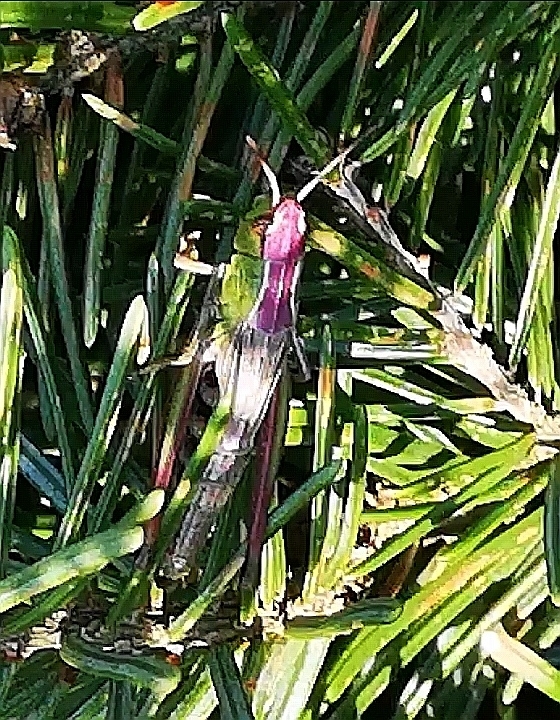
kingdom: Animalia
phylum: Arthropoda
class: Insecta
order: Orthoptera
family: Acrididae
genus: Pseudochorthippus
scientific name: Pseudochorthippus parallelus
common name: Meadow grasshopper
